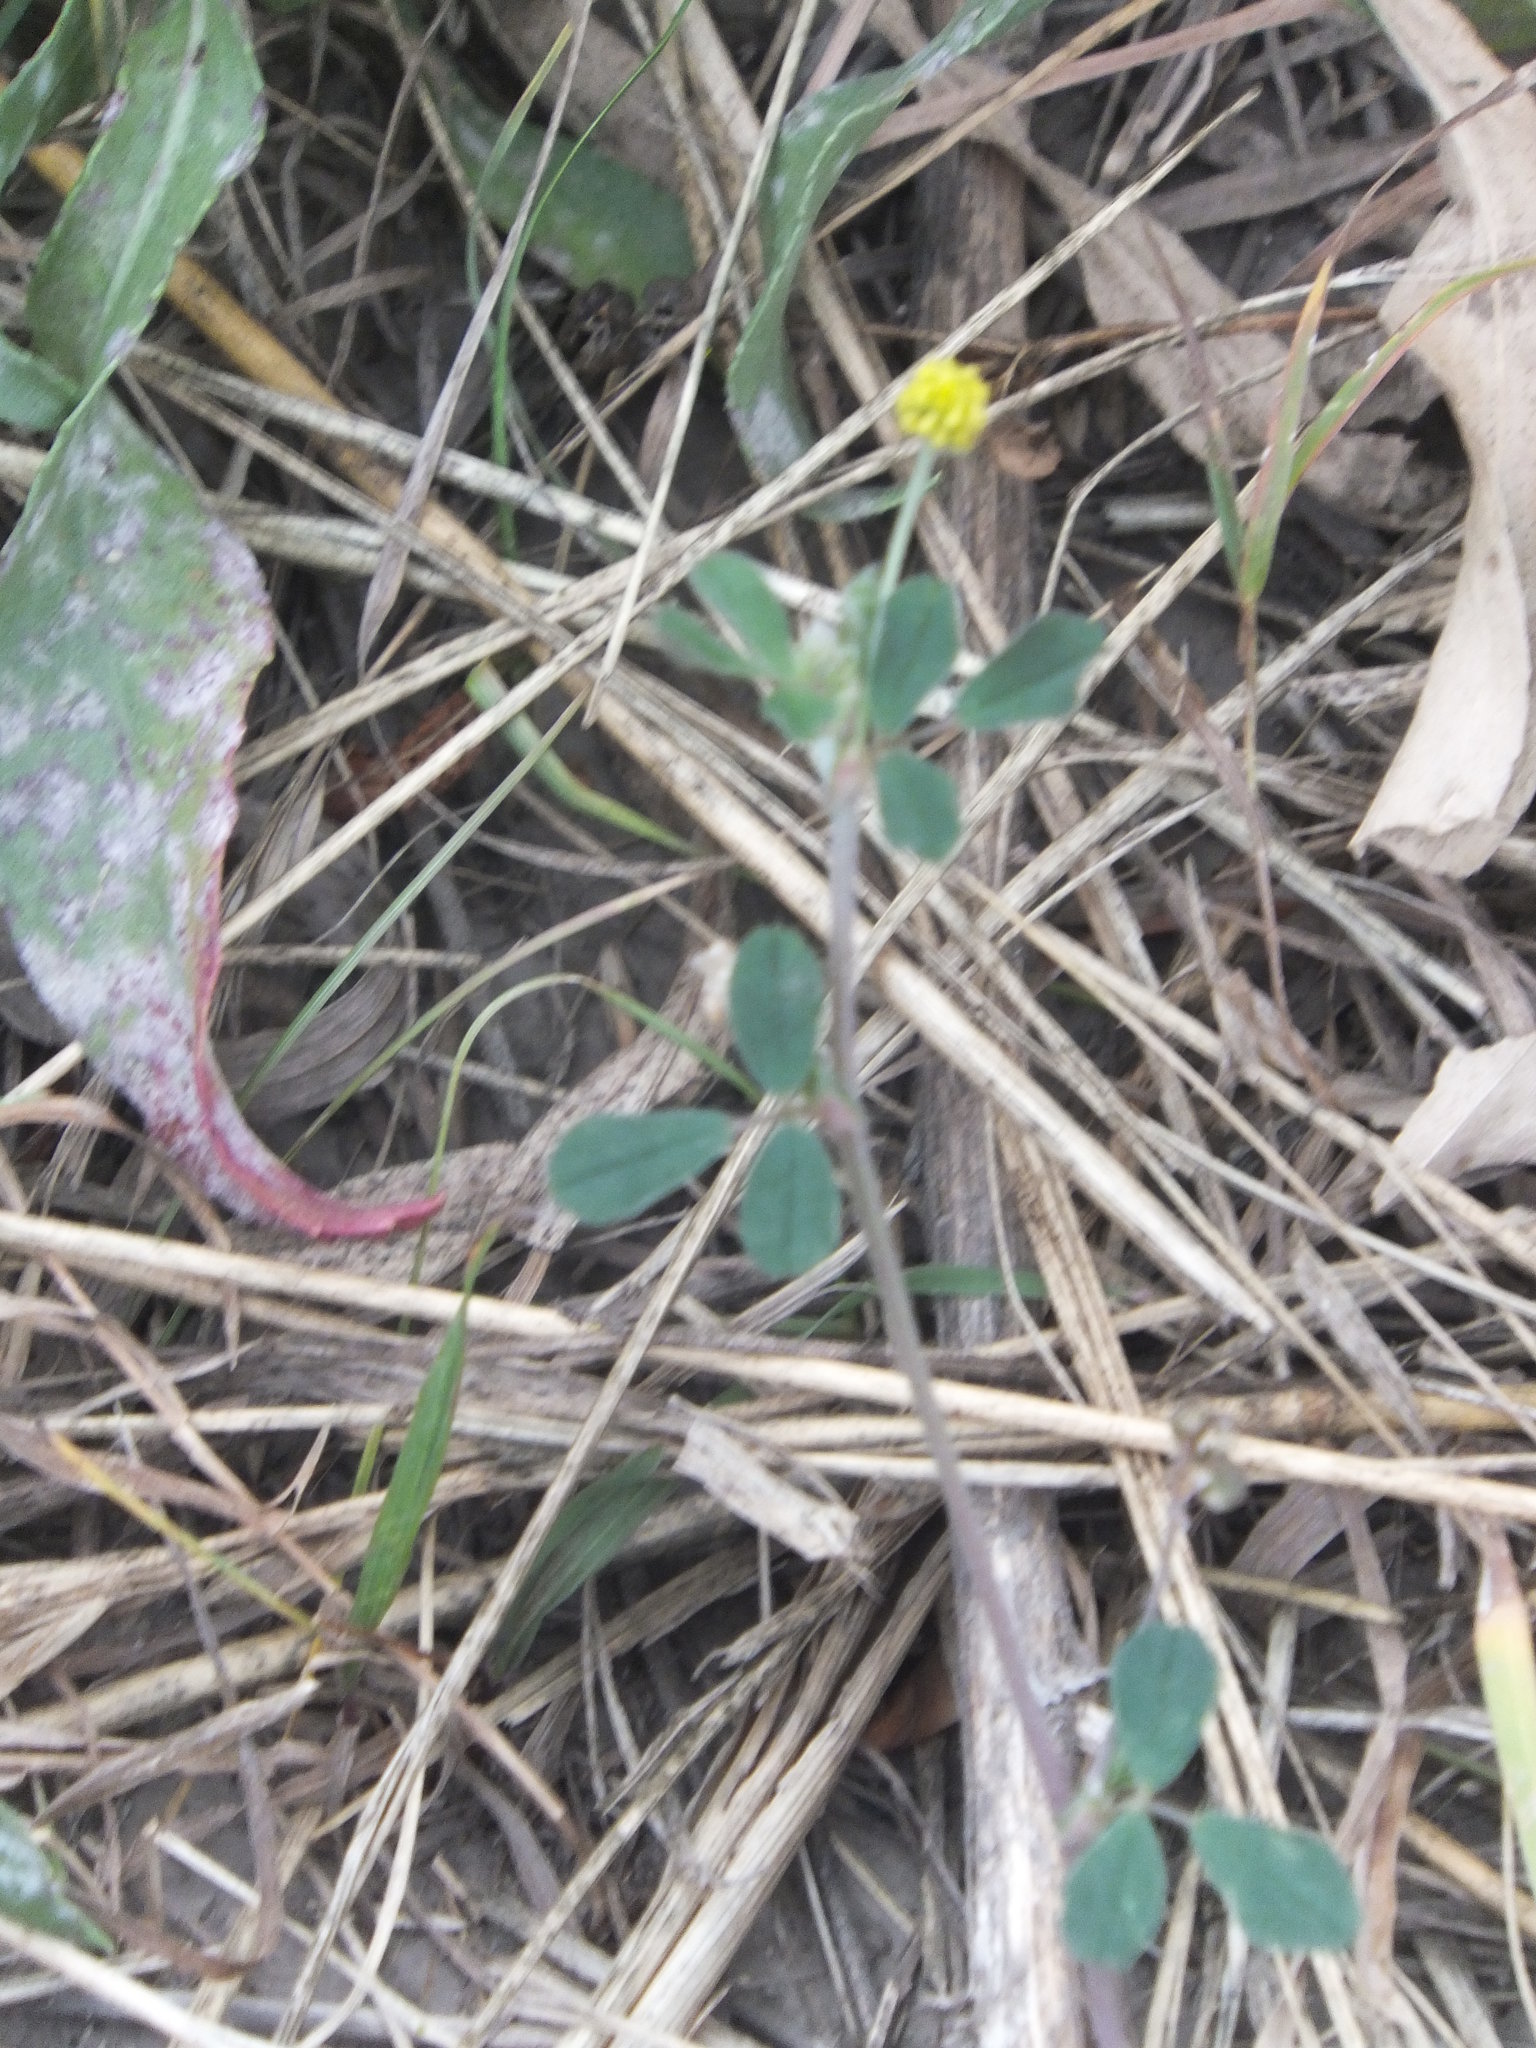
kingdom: Plantae
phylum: Tracheophyta
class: Magnoliopsida
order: Fabales
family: Fabaceae
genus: Medicago
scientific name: Medicago lupulina
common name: Black medick
